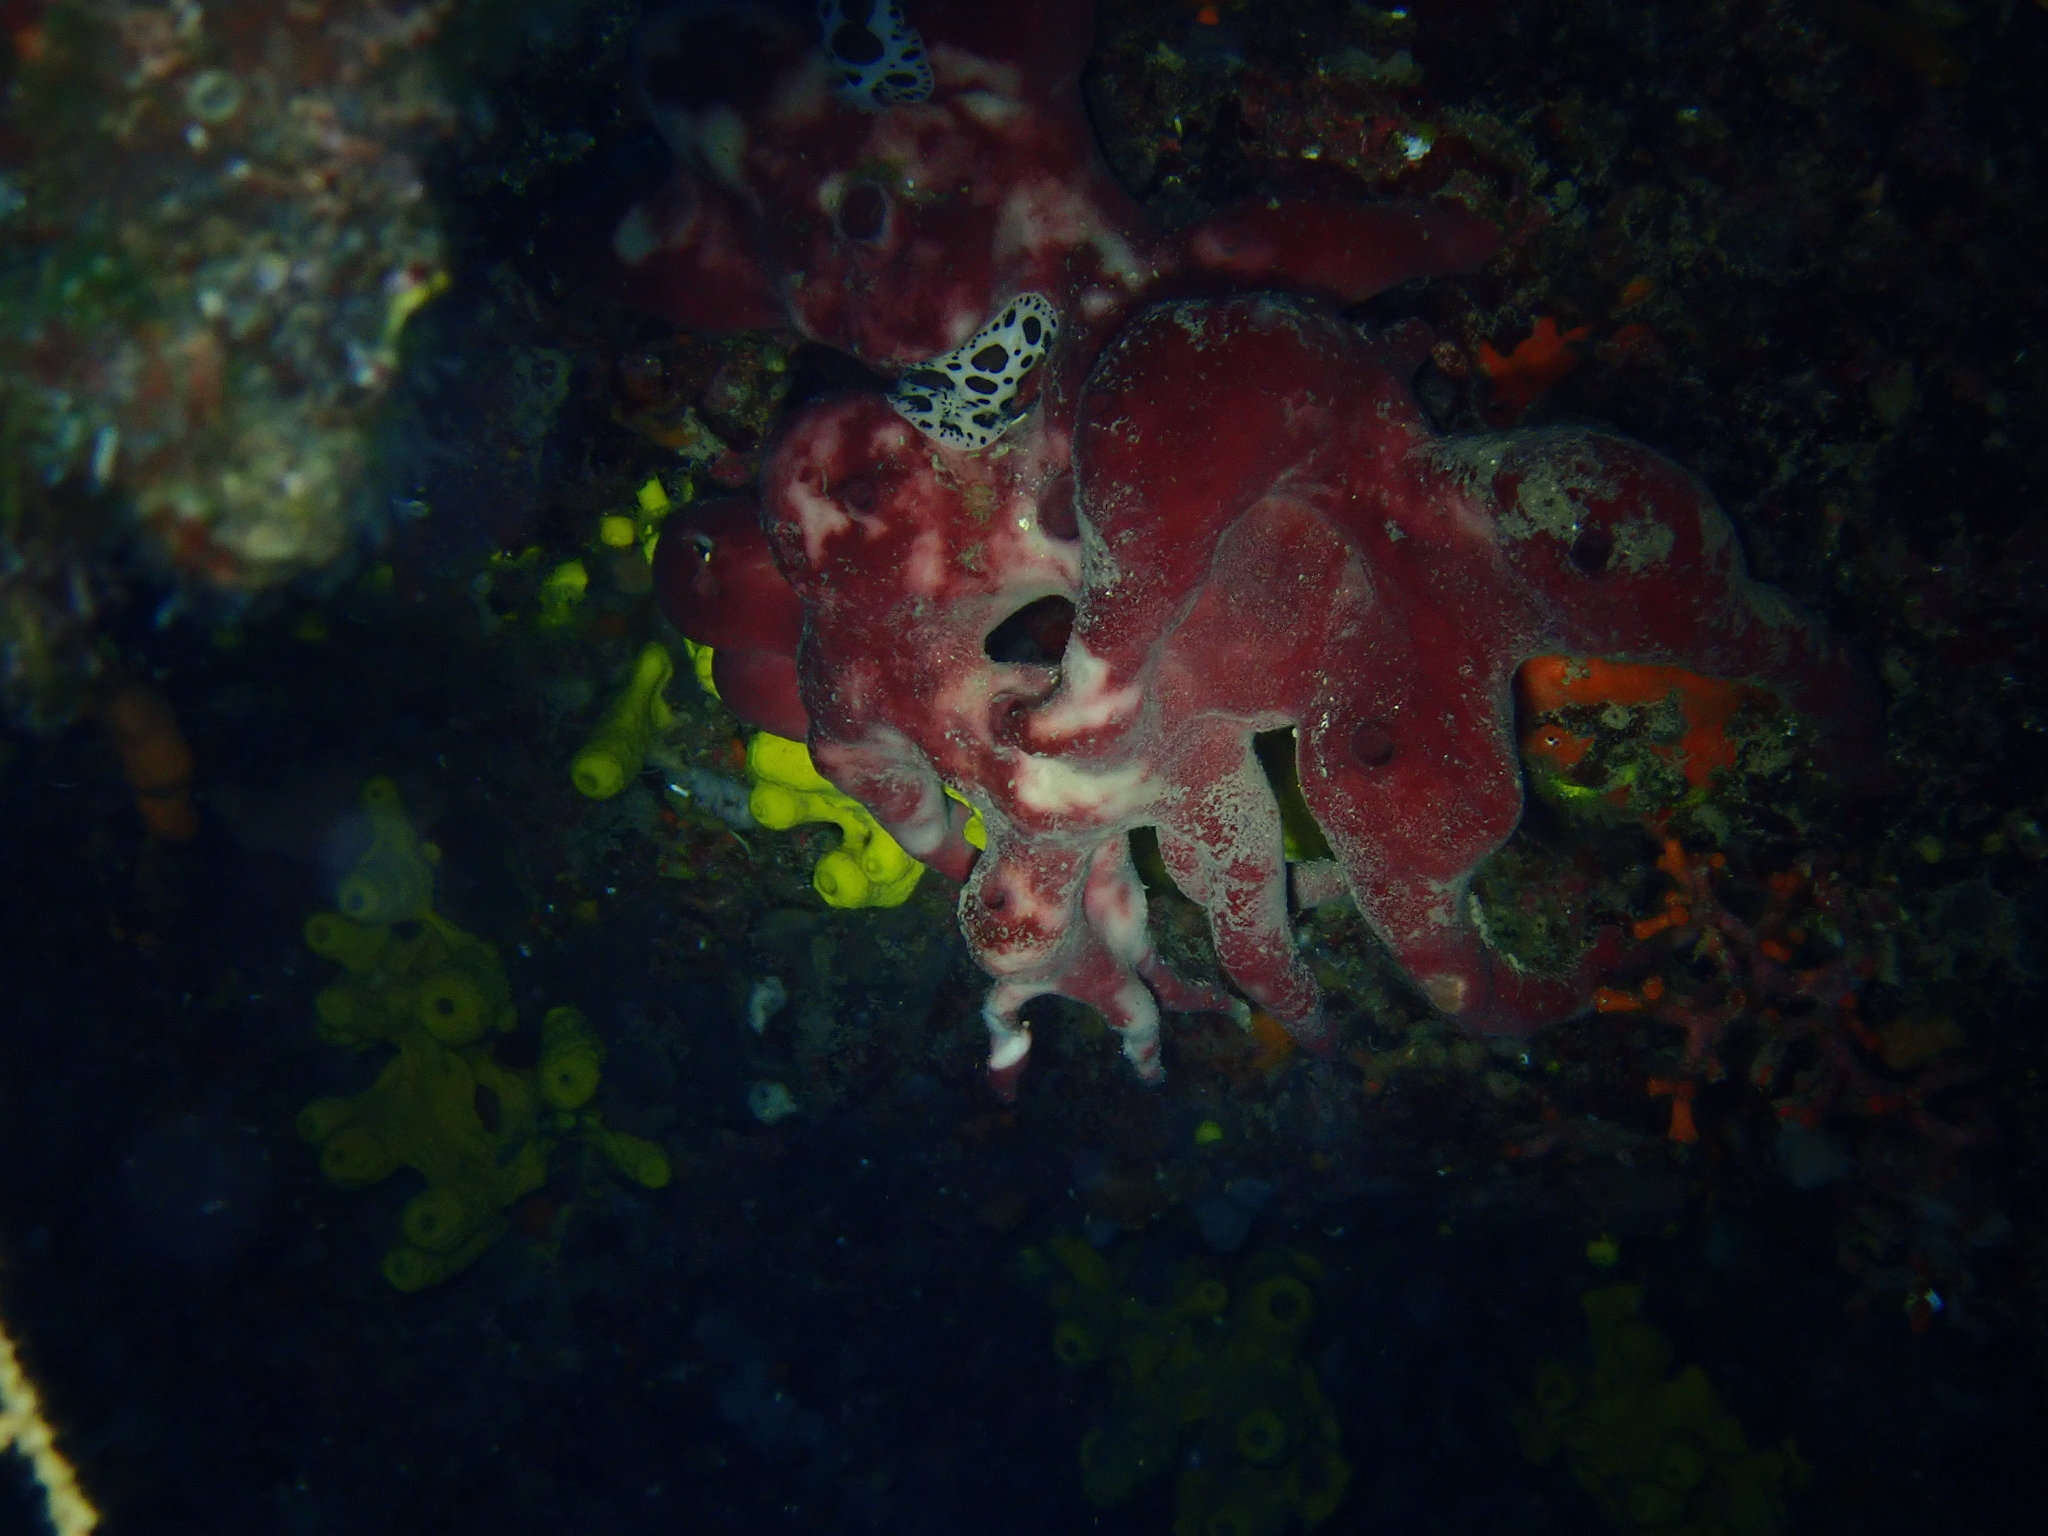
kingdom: Animalia
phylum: Porifera
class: Demospongiae
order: Haplosclerida
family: Petrosiidae
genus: Petrosia
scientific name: Petrosia ficiformis
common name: Stony sponge
